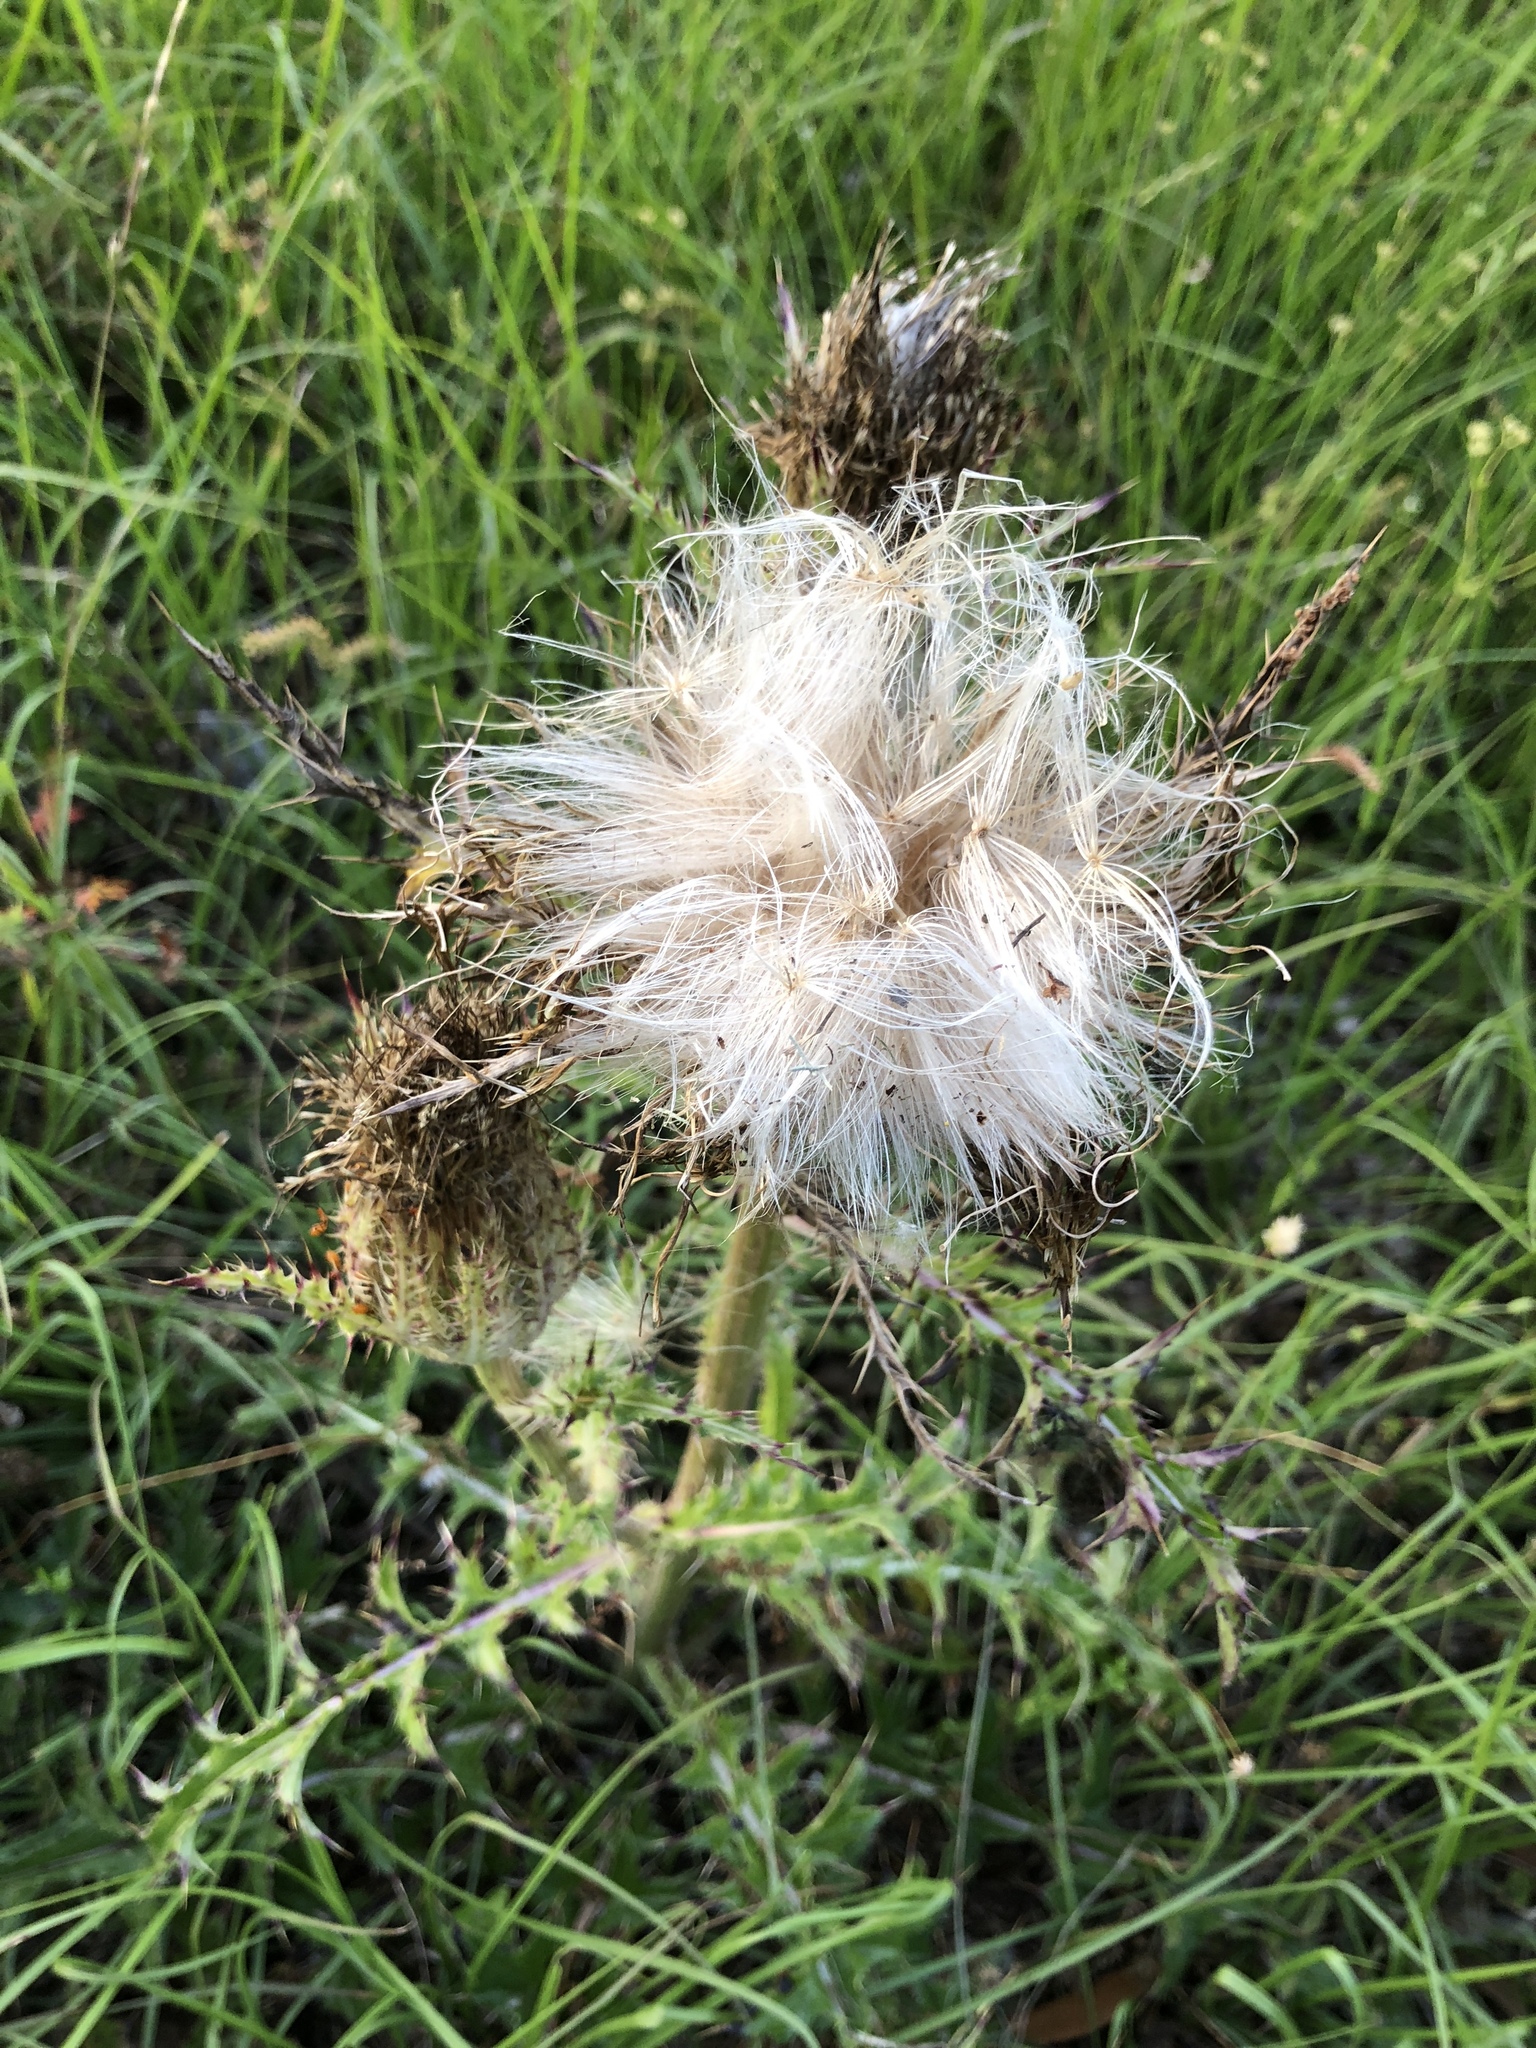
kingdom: Plantae
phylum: Tracheophyta
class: Magnoliopsida
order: Asterales
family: Asteraceae
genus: Cirsium
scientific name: Cirsium horridulum
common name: Bristly thistle
